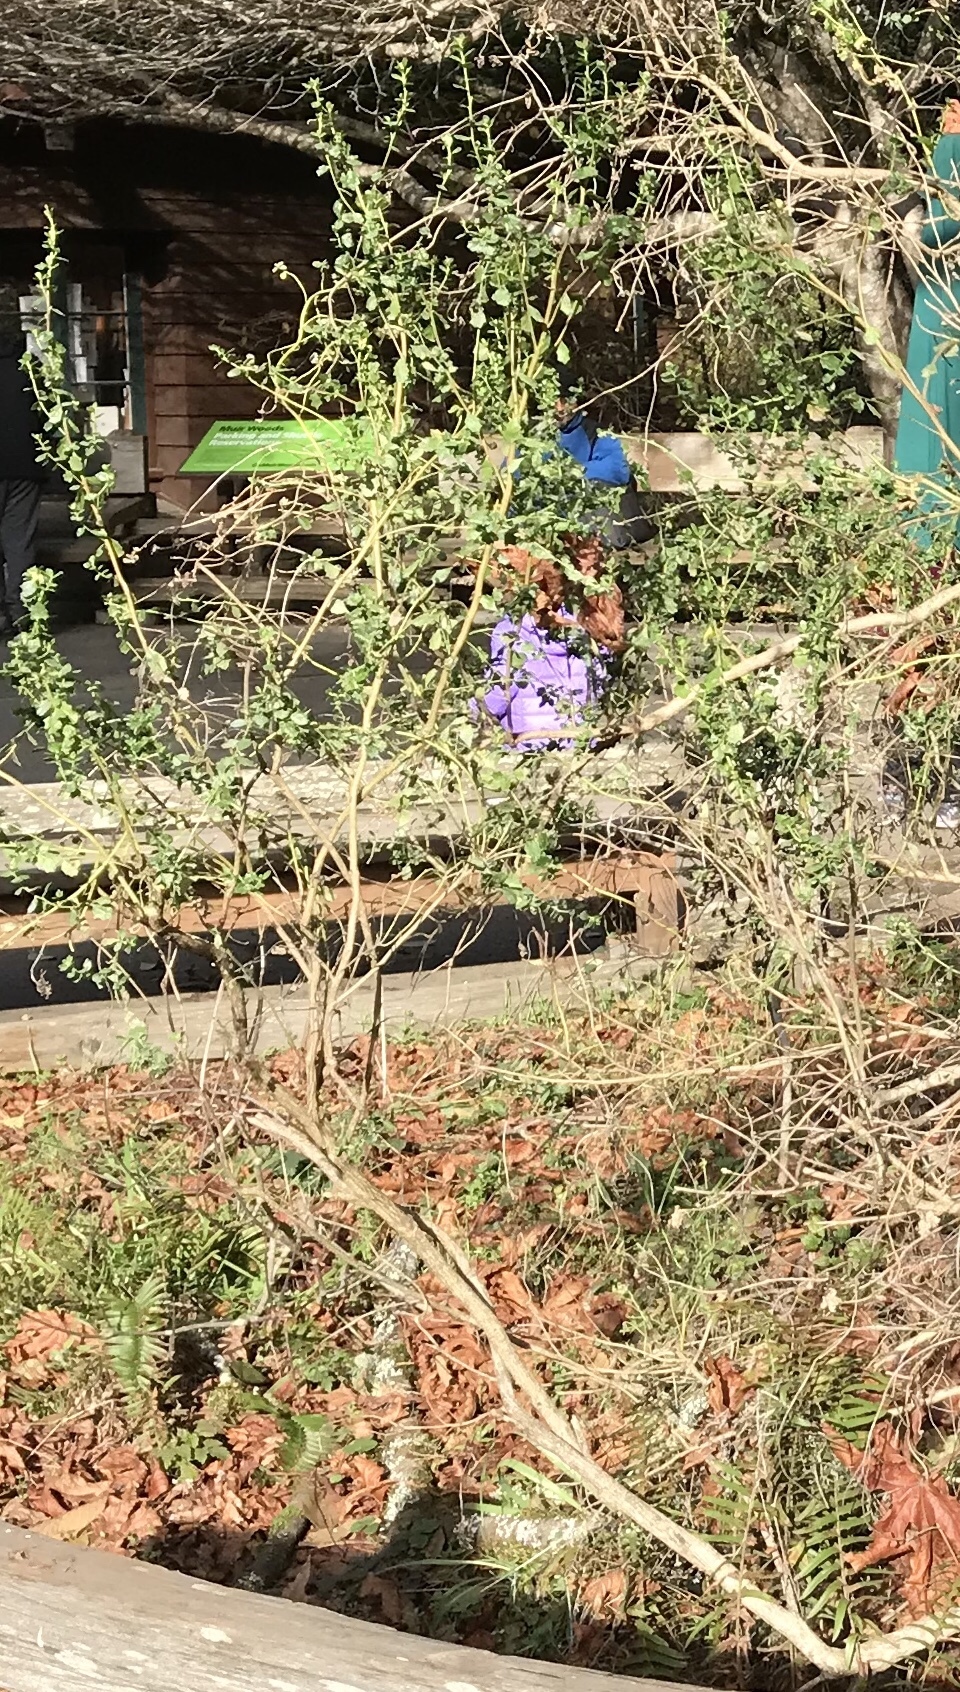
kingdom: Plantae
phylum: Tracheophyta
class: Magnoliopsida
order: Asterales
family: Asteraceae
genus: Baccharis
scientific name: Baccharis pilularis
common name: Coyotebrush
